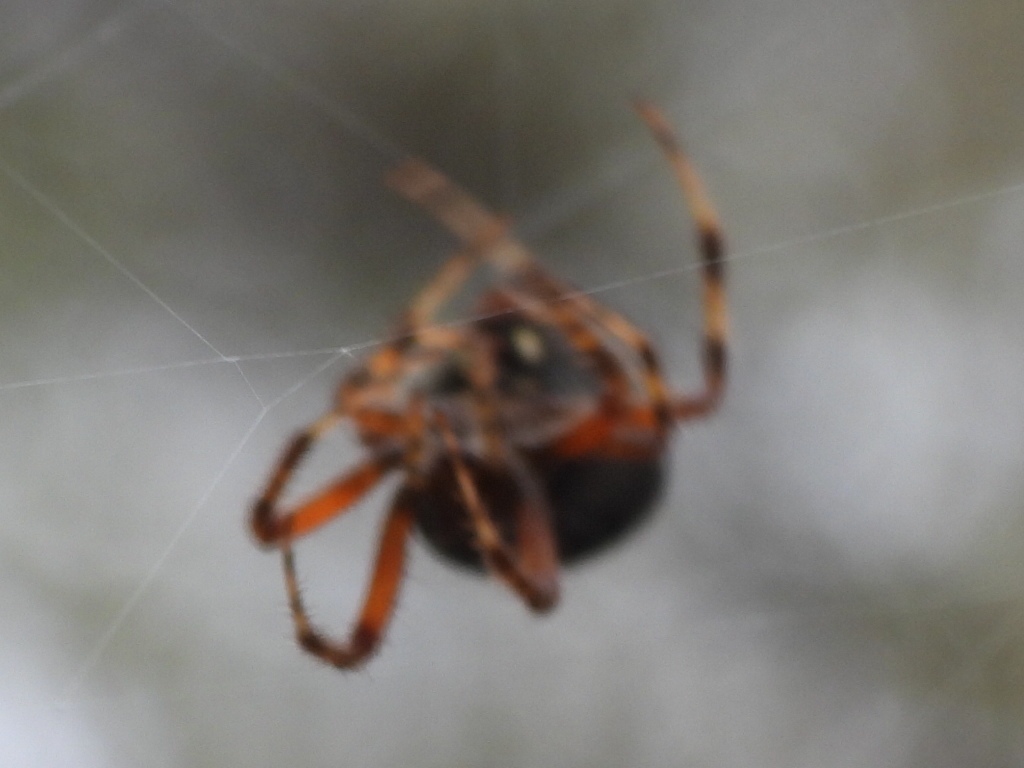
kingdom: Animalia
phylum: Arthropoda
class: Arachnida
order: Araneae
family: Araneidae
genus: Neoscona
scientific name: Neoscona crucifera
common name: Spotted orbweaver
